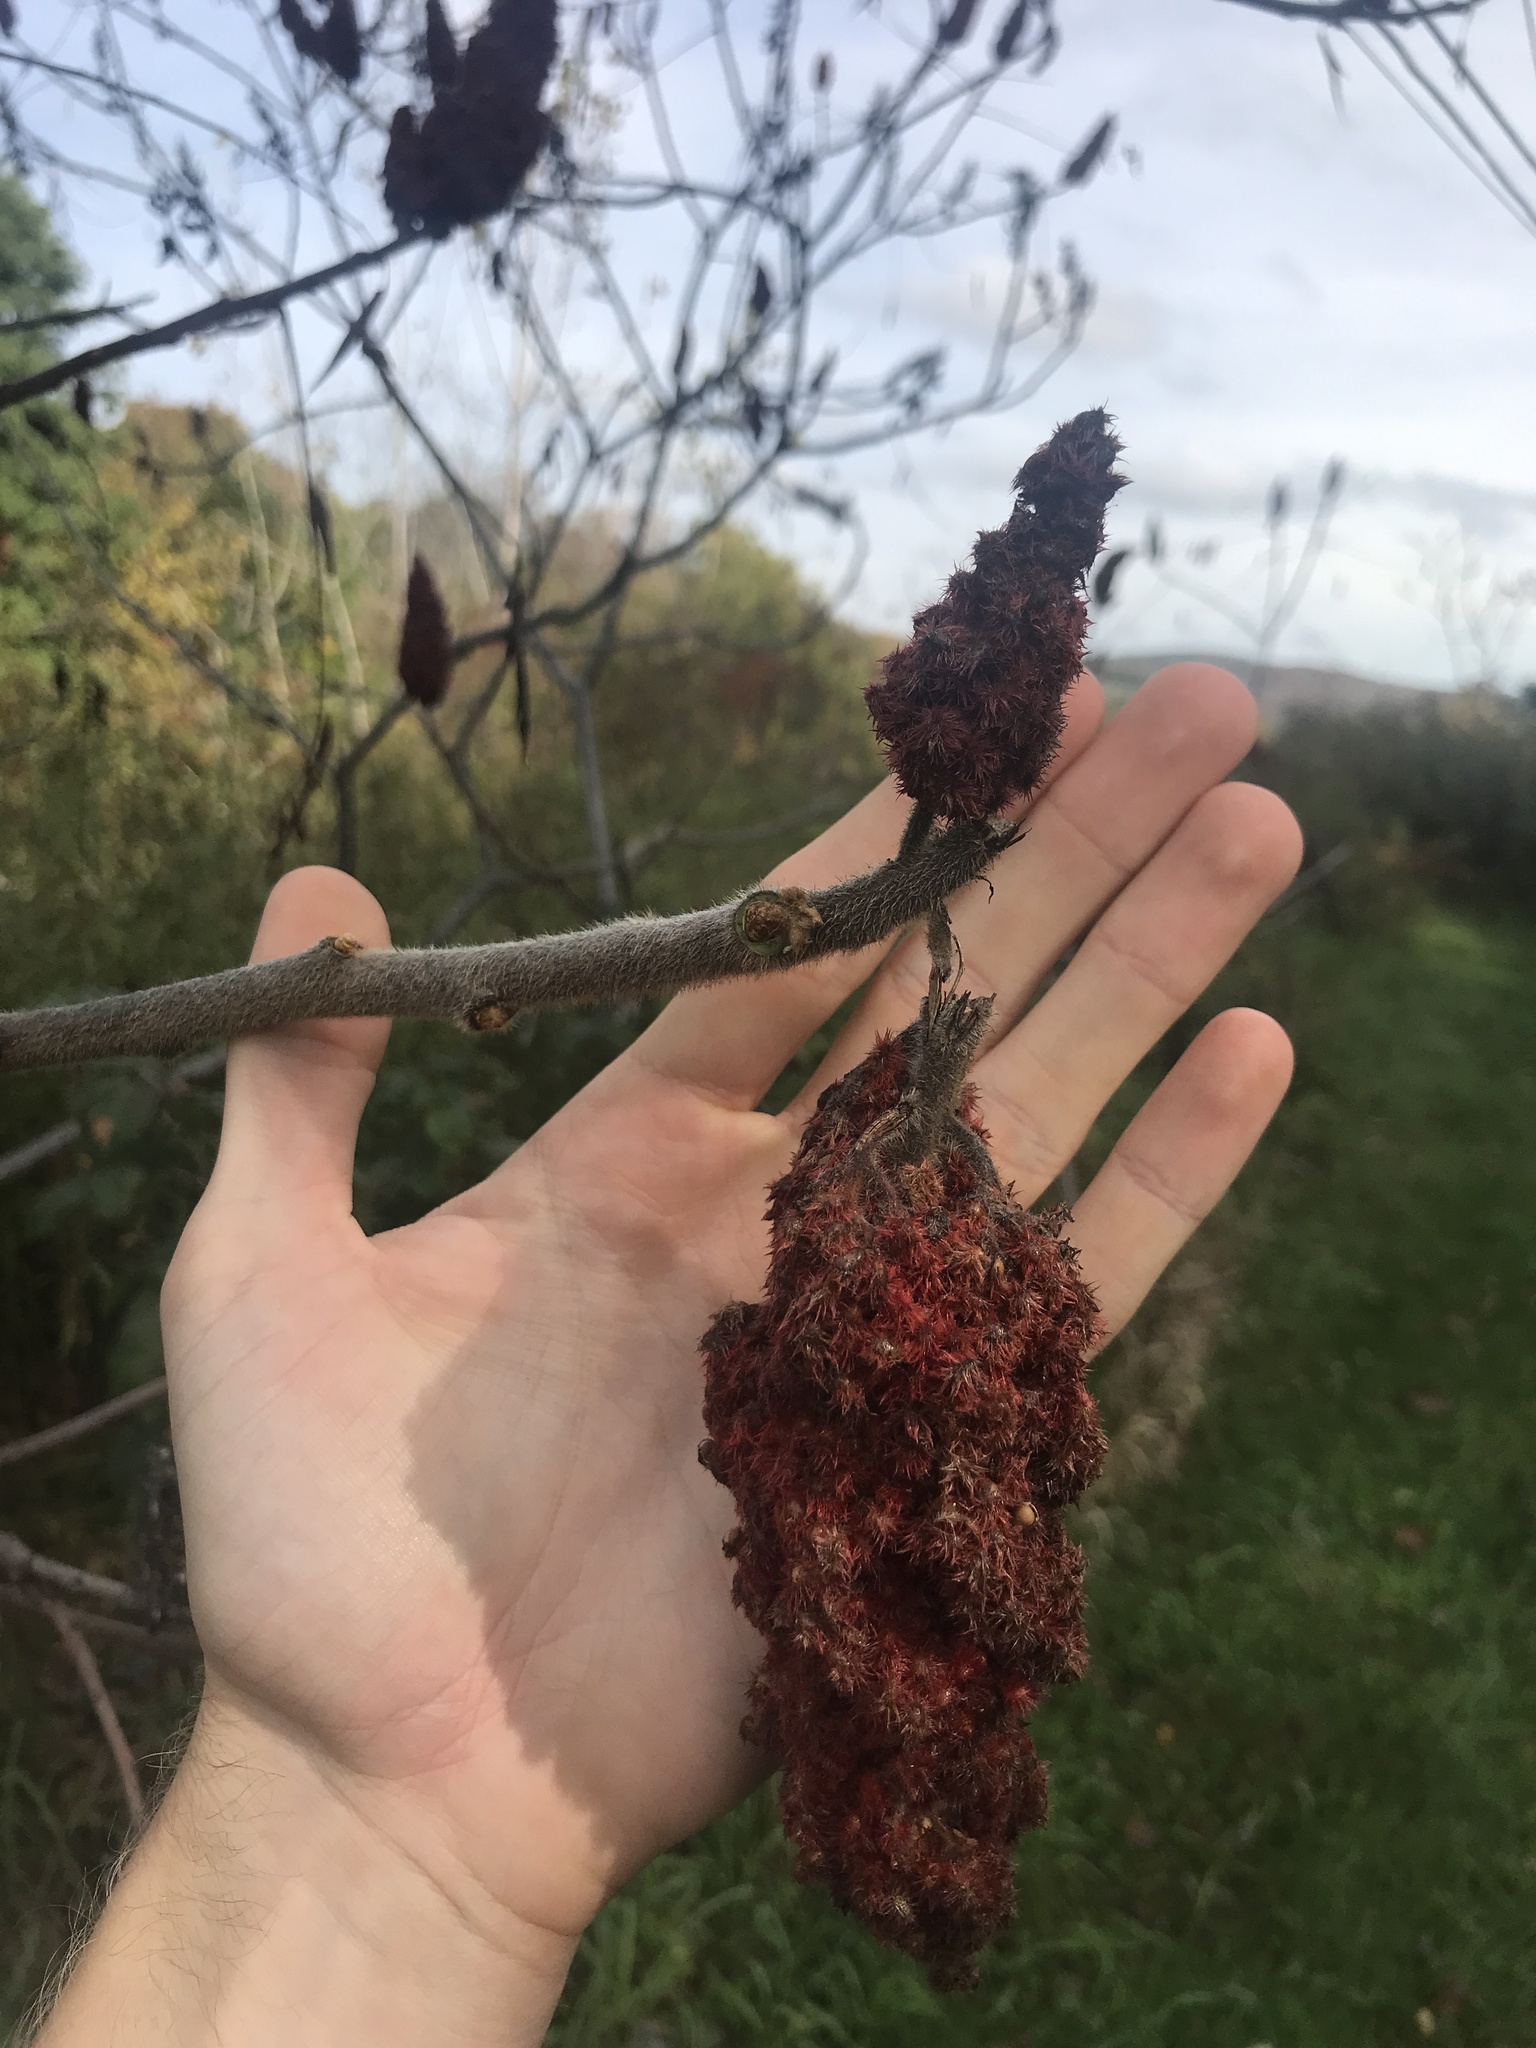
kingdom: Plantae
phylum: Tracheophyta
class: Magnoliopsida
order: Sapindales
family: Anacardiaceae
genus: Rhus
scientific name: Rhus typhina
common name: Staghorn sumac
